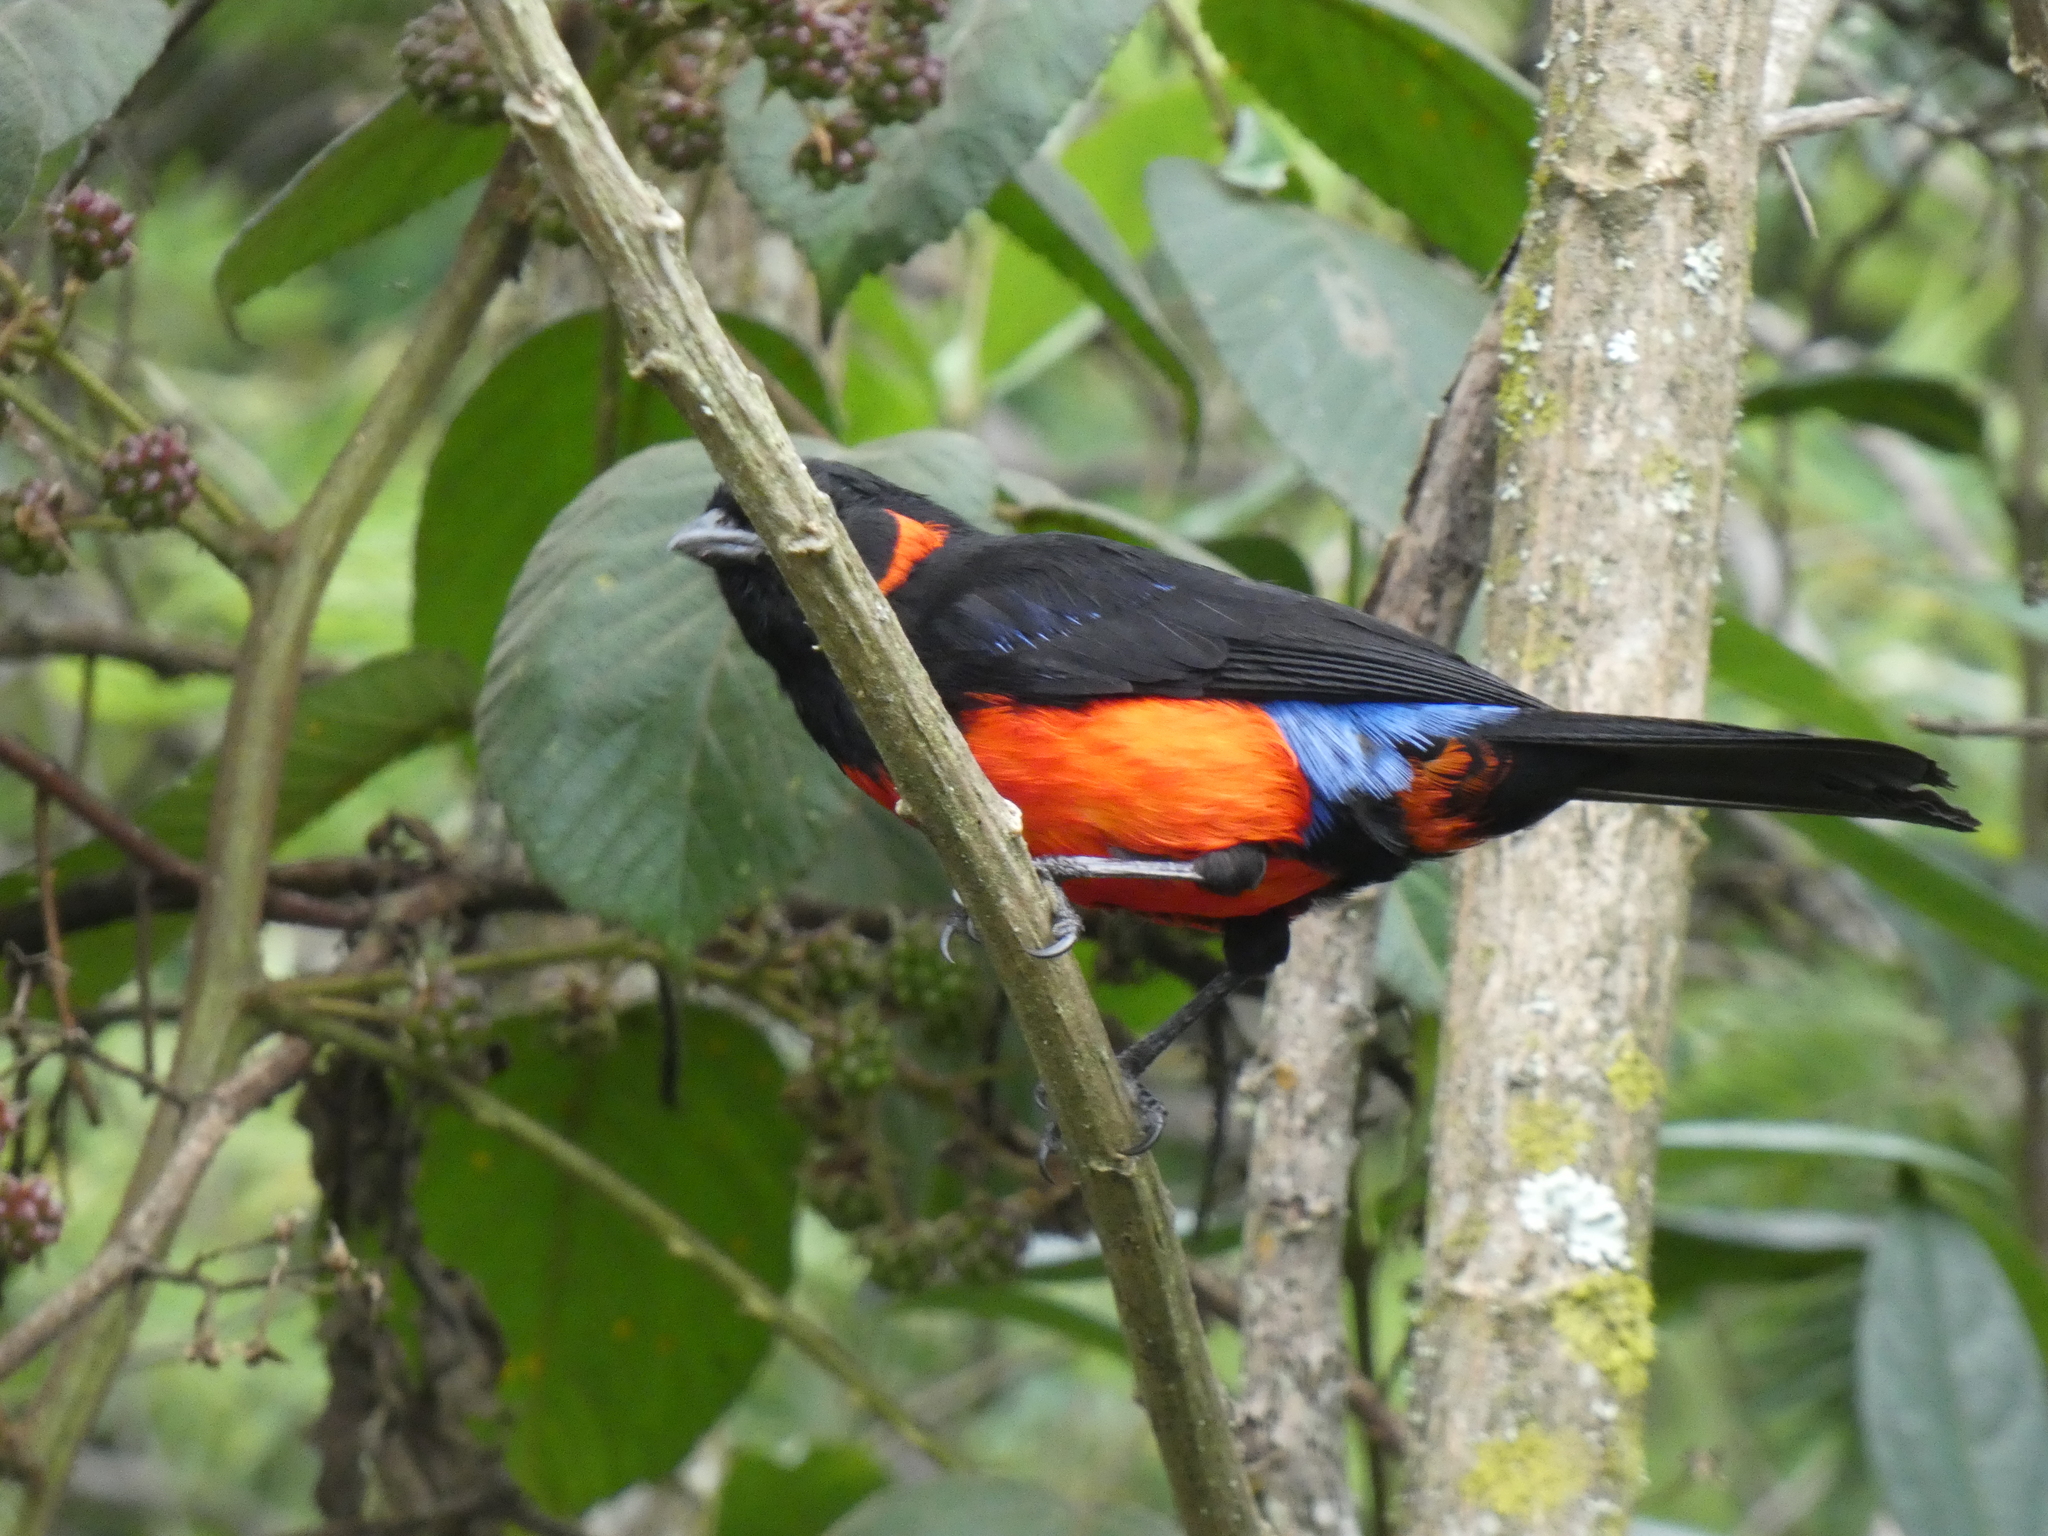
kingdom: Animalia
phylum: Chordata
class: Aves
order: Passeriformes
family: Thraupidae
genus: Anisognathus
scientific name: Anisognathus igniventris
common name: Scarlet-bellied mountain tanager
